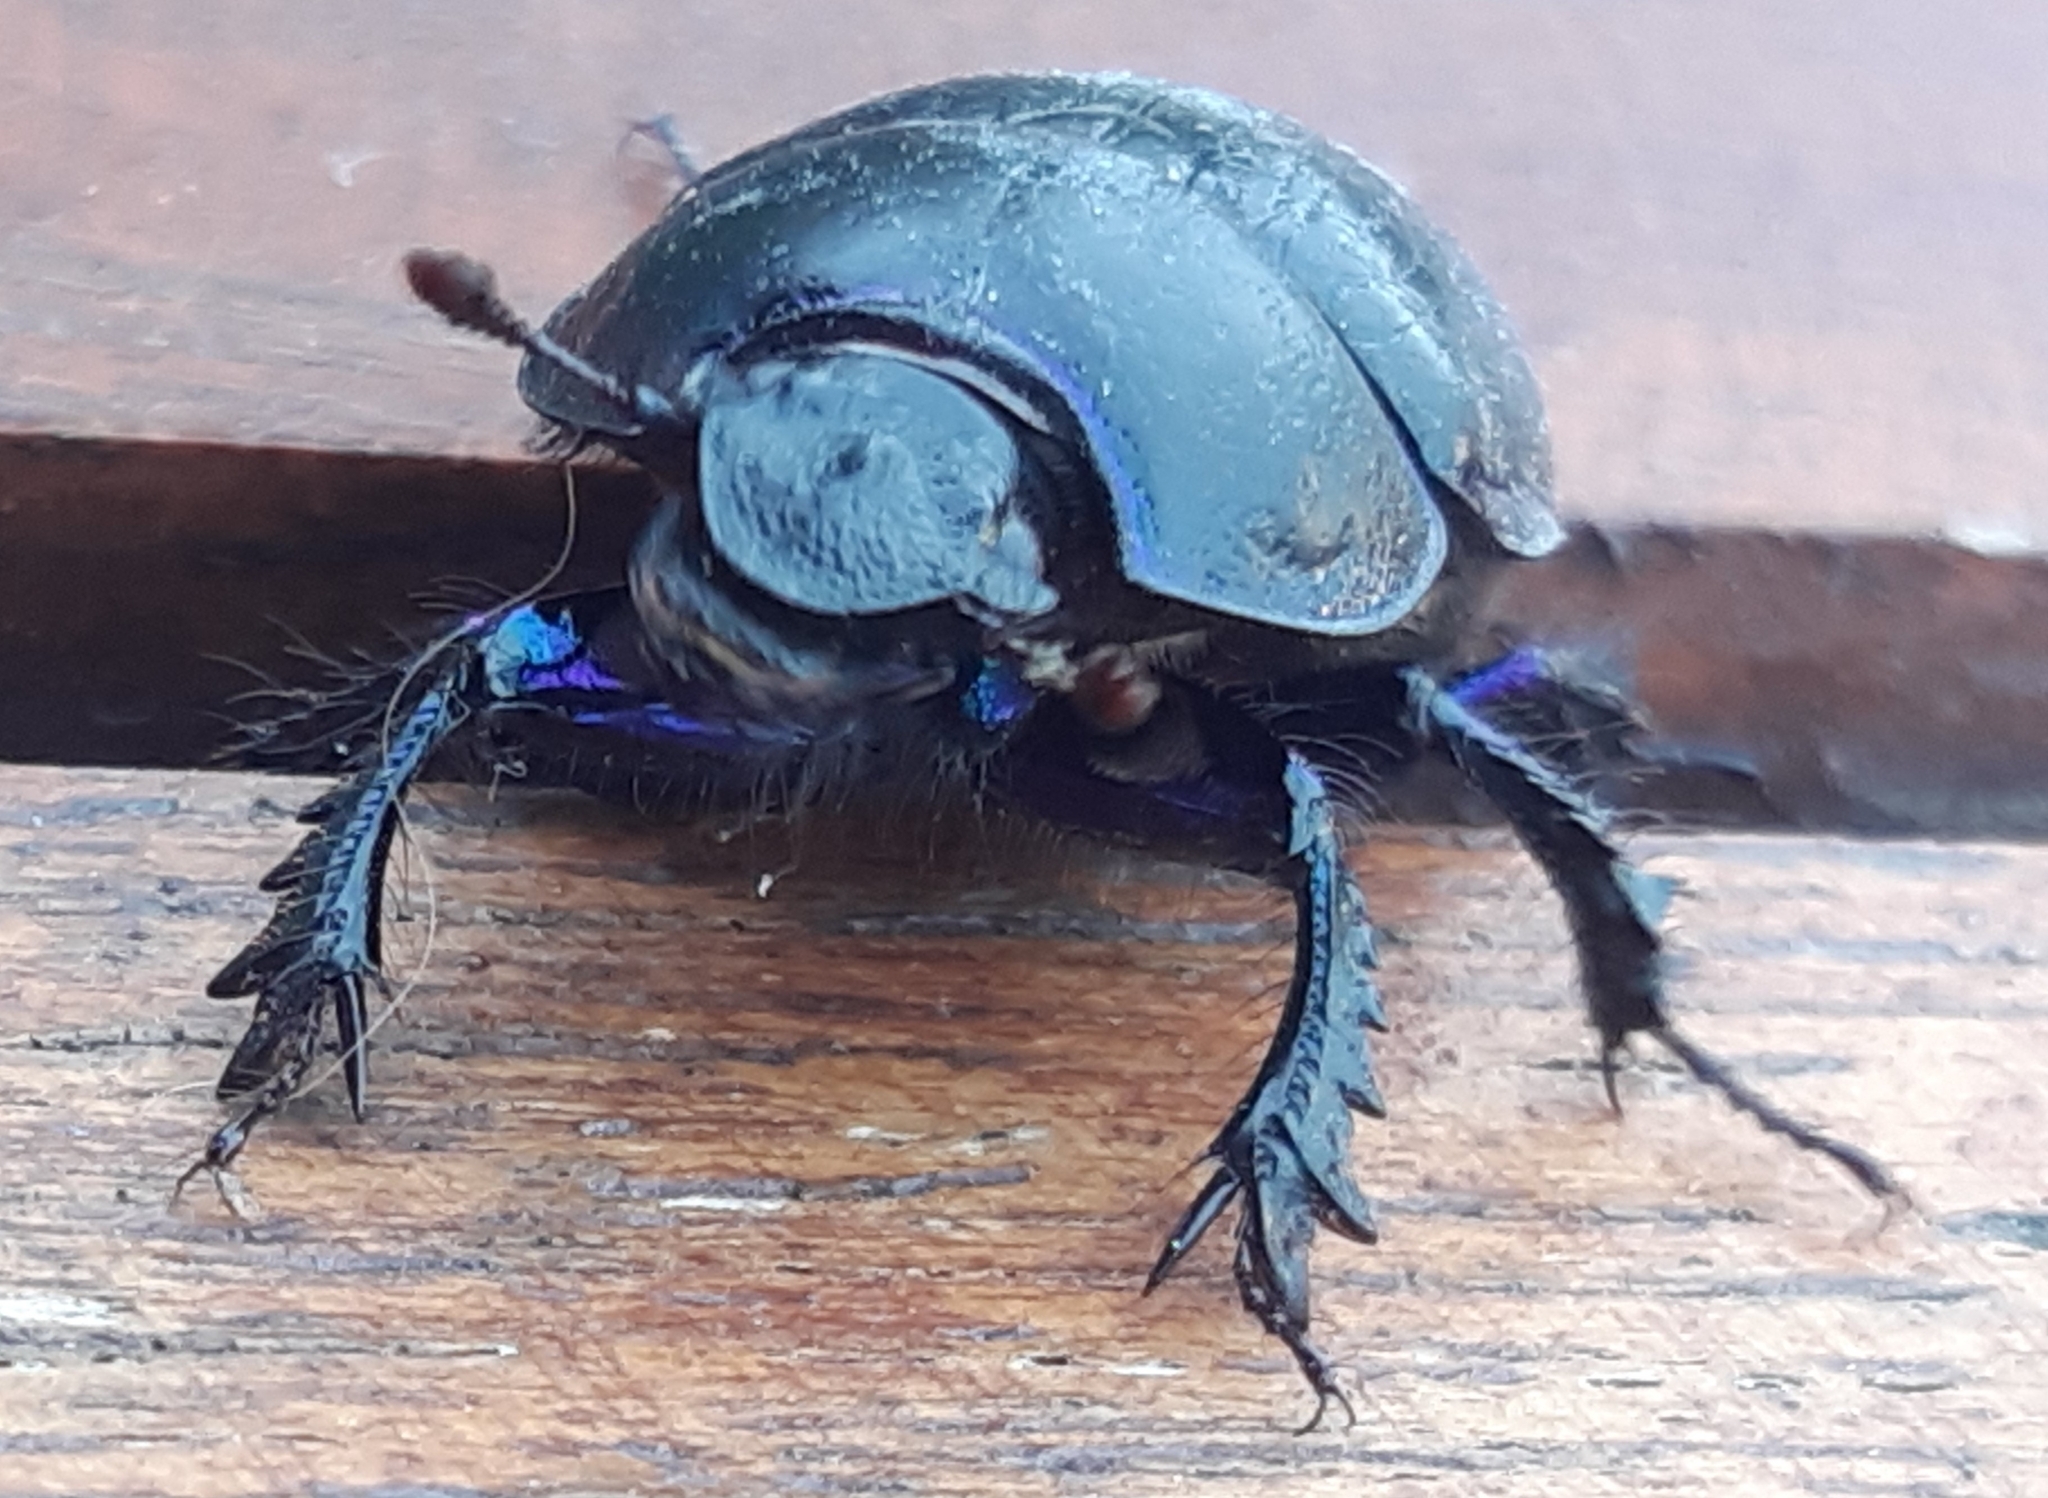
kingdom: Animalia
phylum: Arthropoda
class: Insecta
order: Coleoptera
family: Geotrupidae
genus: Anoplotrupes
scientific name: Anoplotrupes stercorosus
